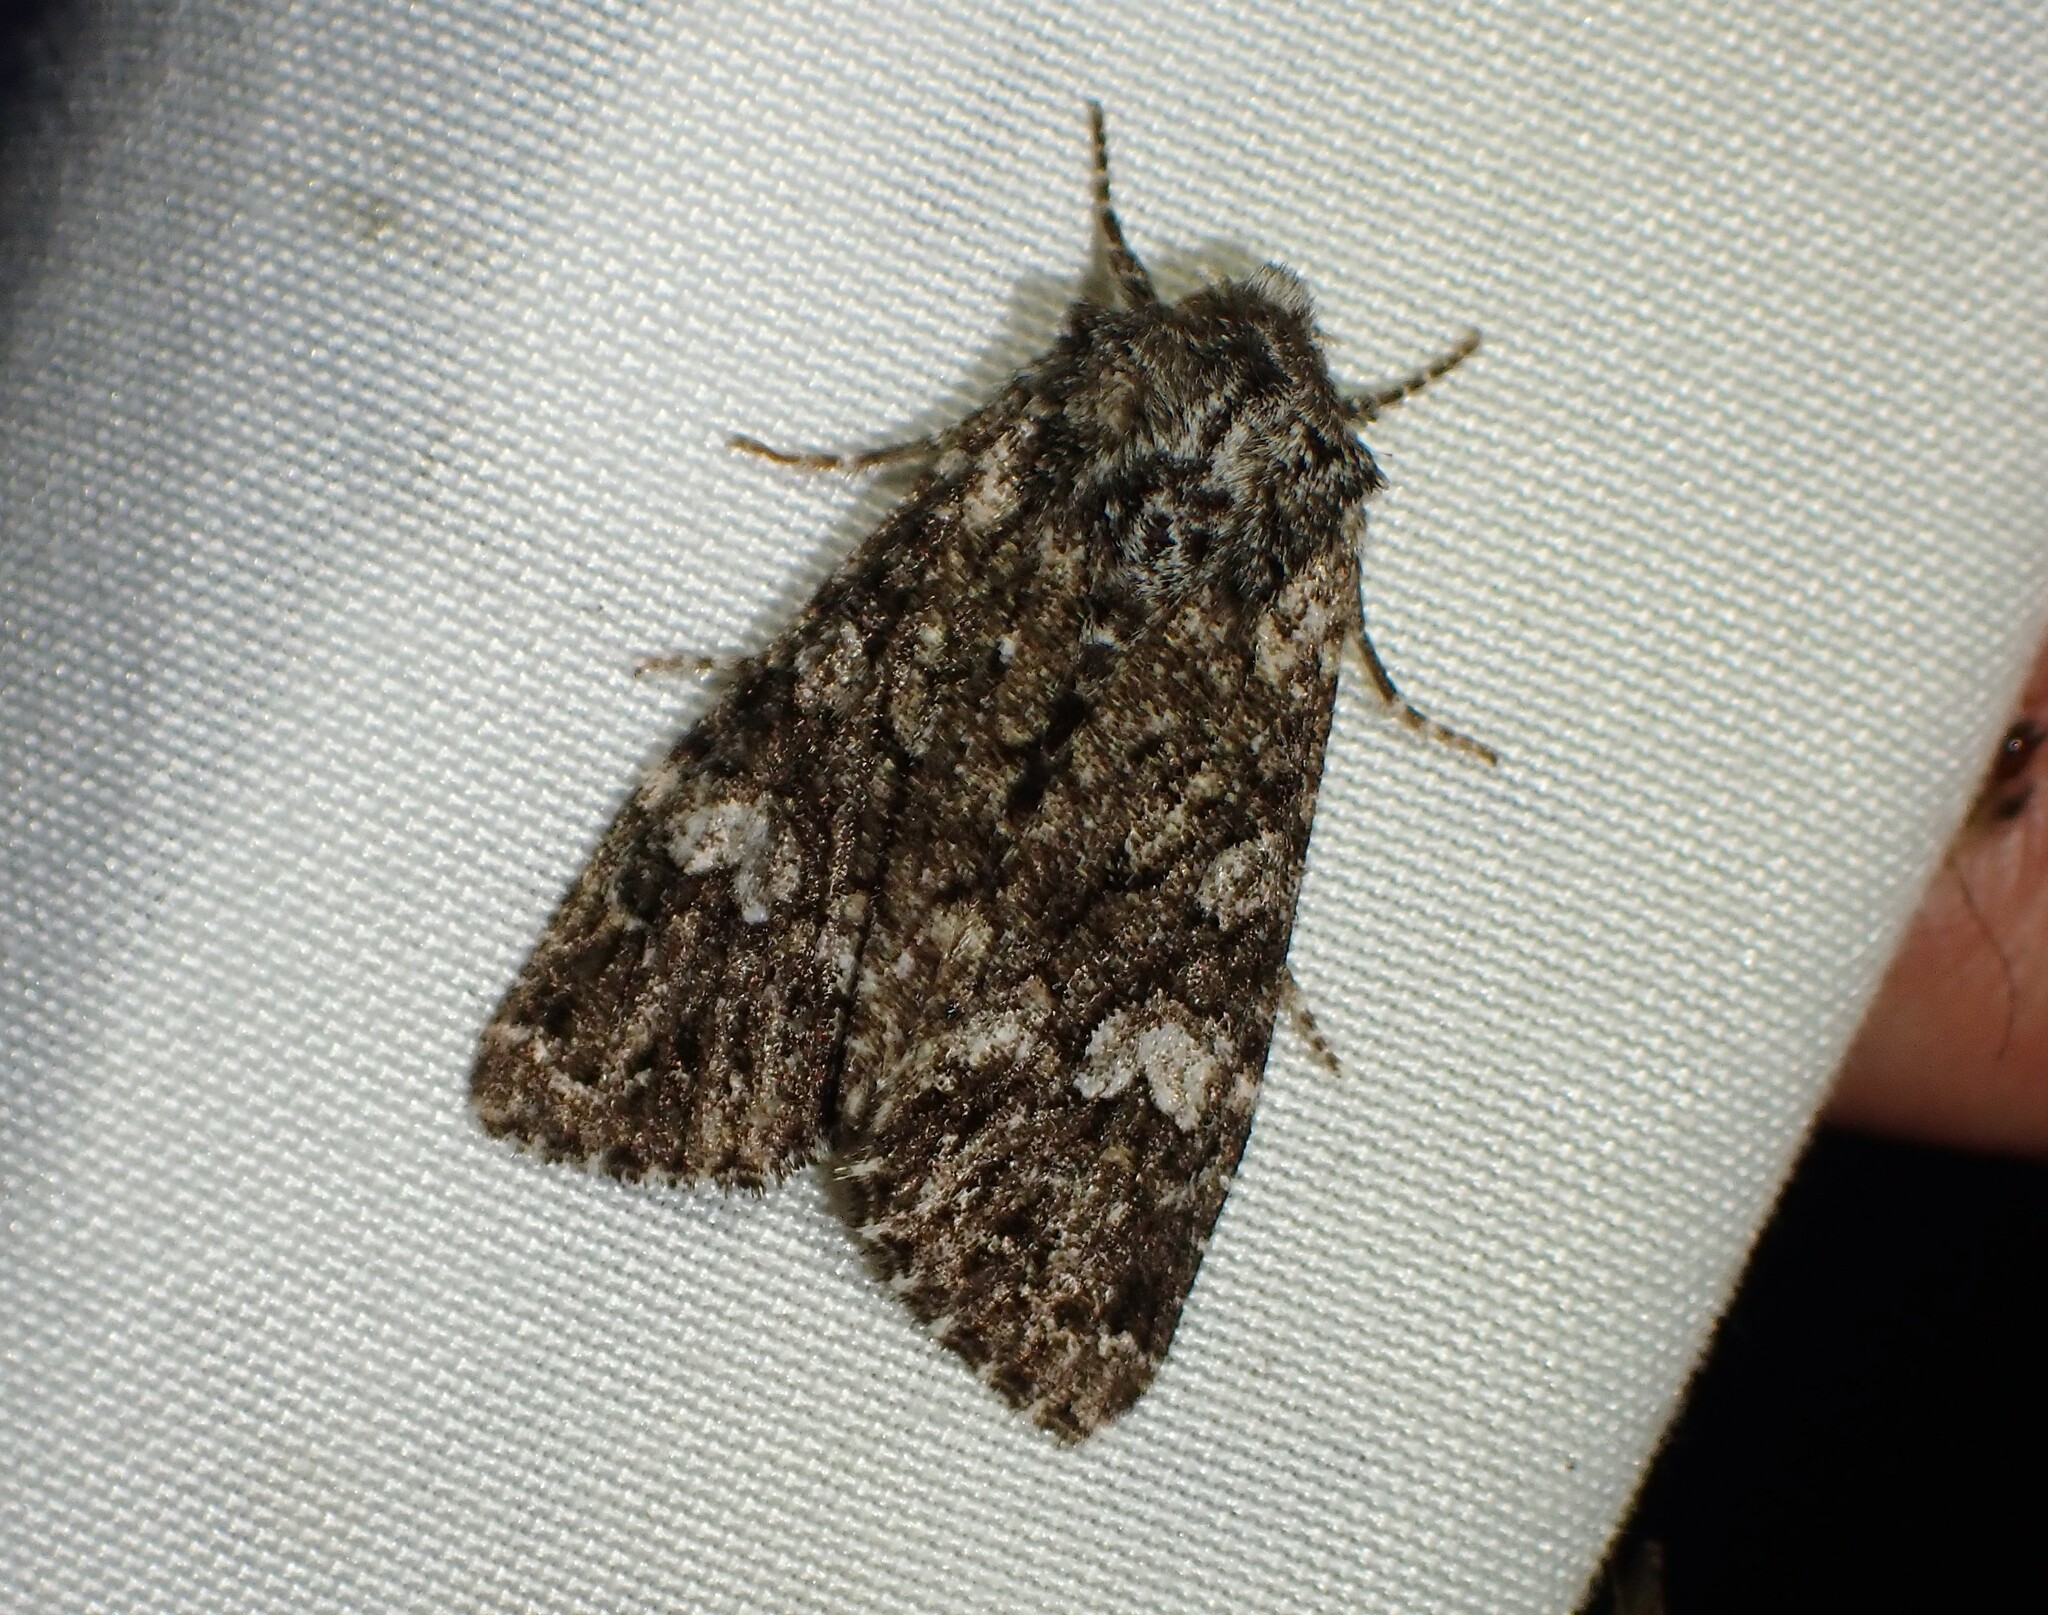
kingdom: Animalia
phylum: Arthropoda
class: Insecta
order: Lepidoptera
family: Noctuidae
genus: Papestra
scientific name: Papestra cristifera
